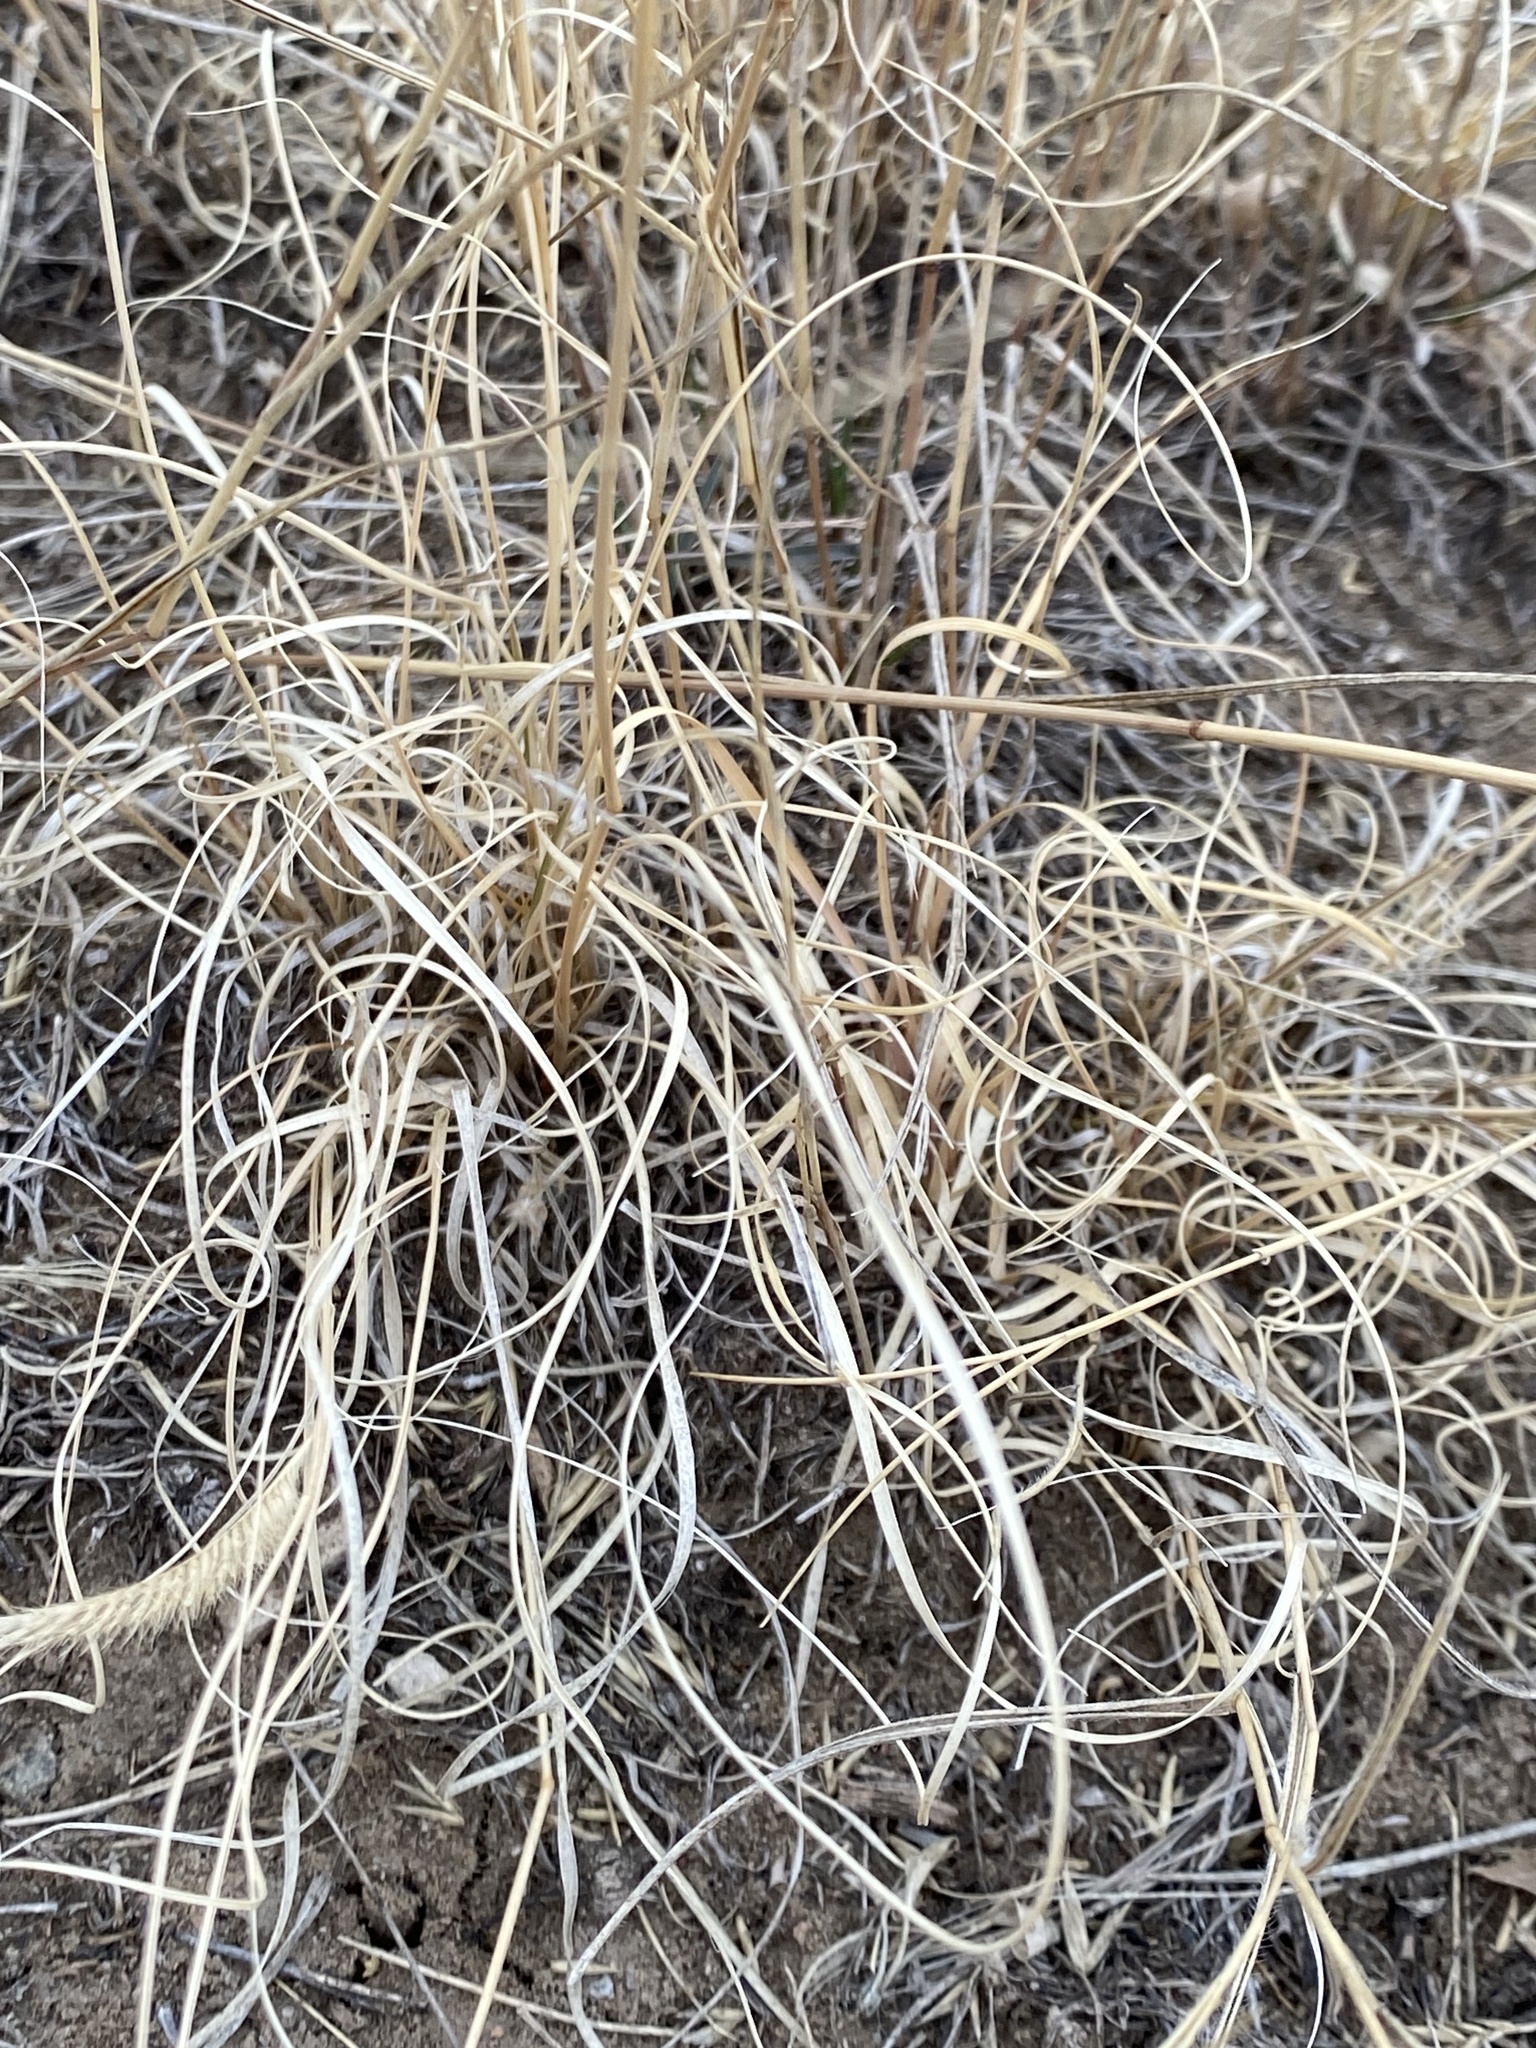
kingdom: Plantae
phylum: Tracheophyta
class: Liliopsida
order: Poales
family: Poaceae
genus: Bouteloua
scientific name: Bouteloua gracilis
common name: Blue grama
